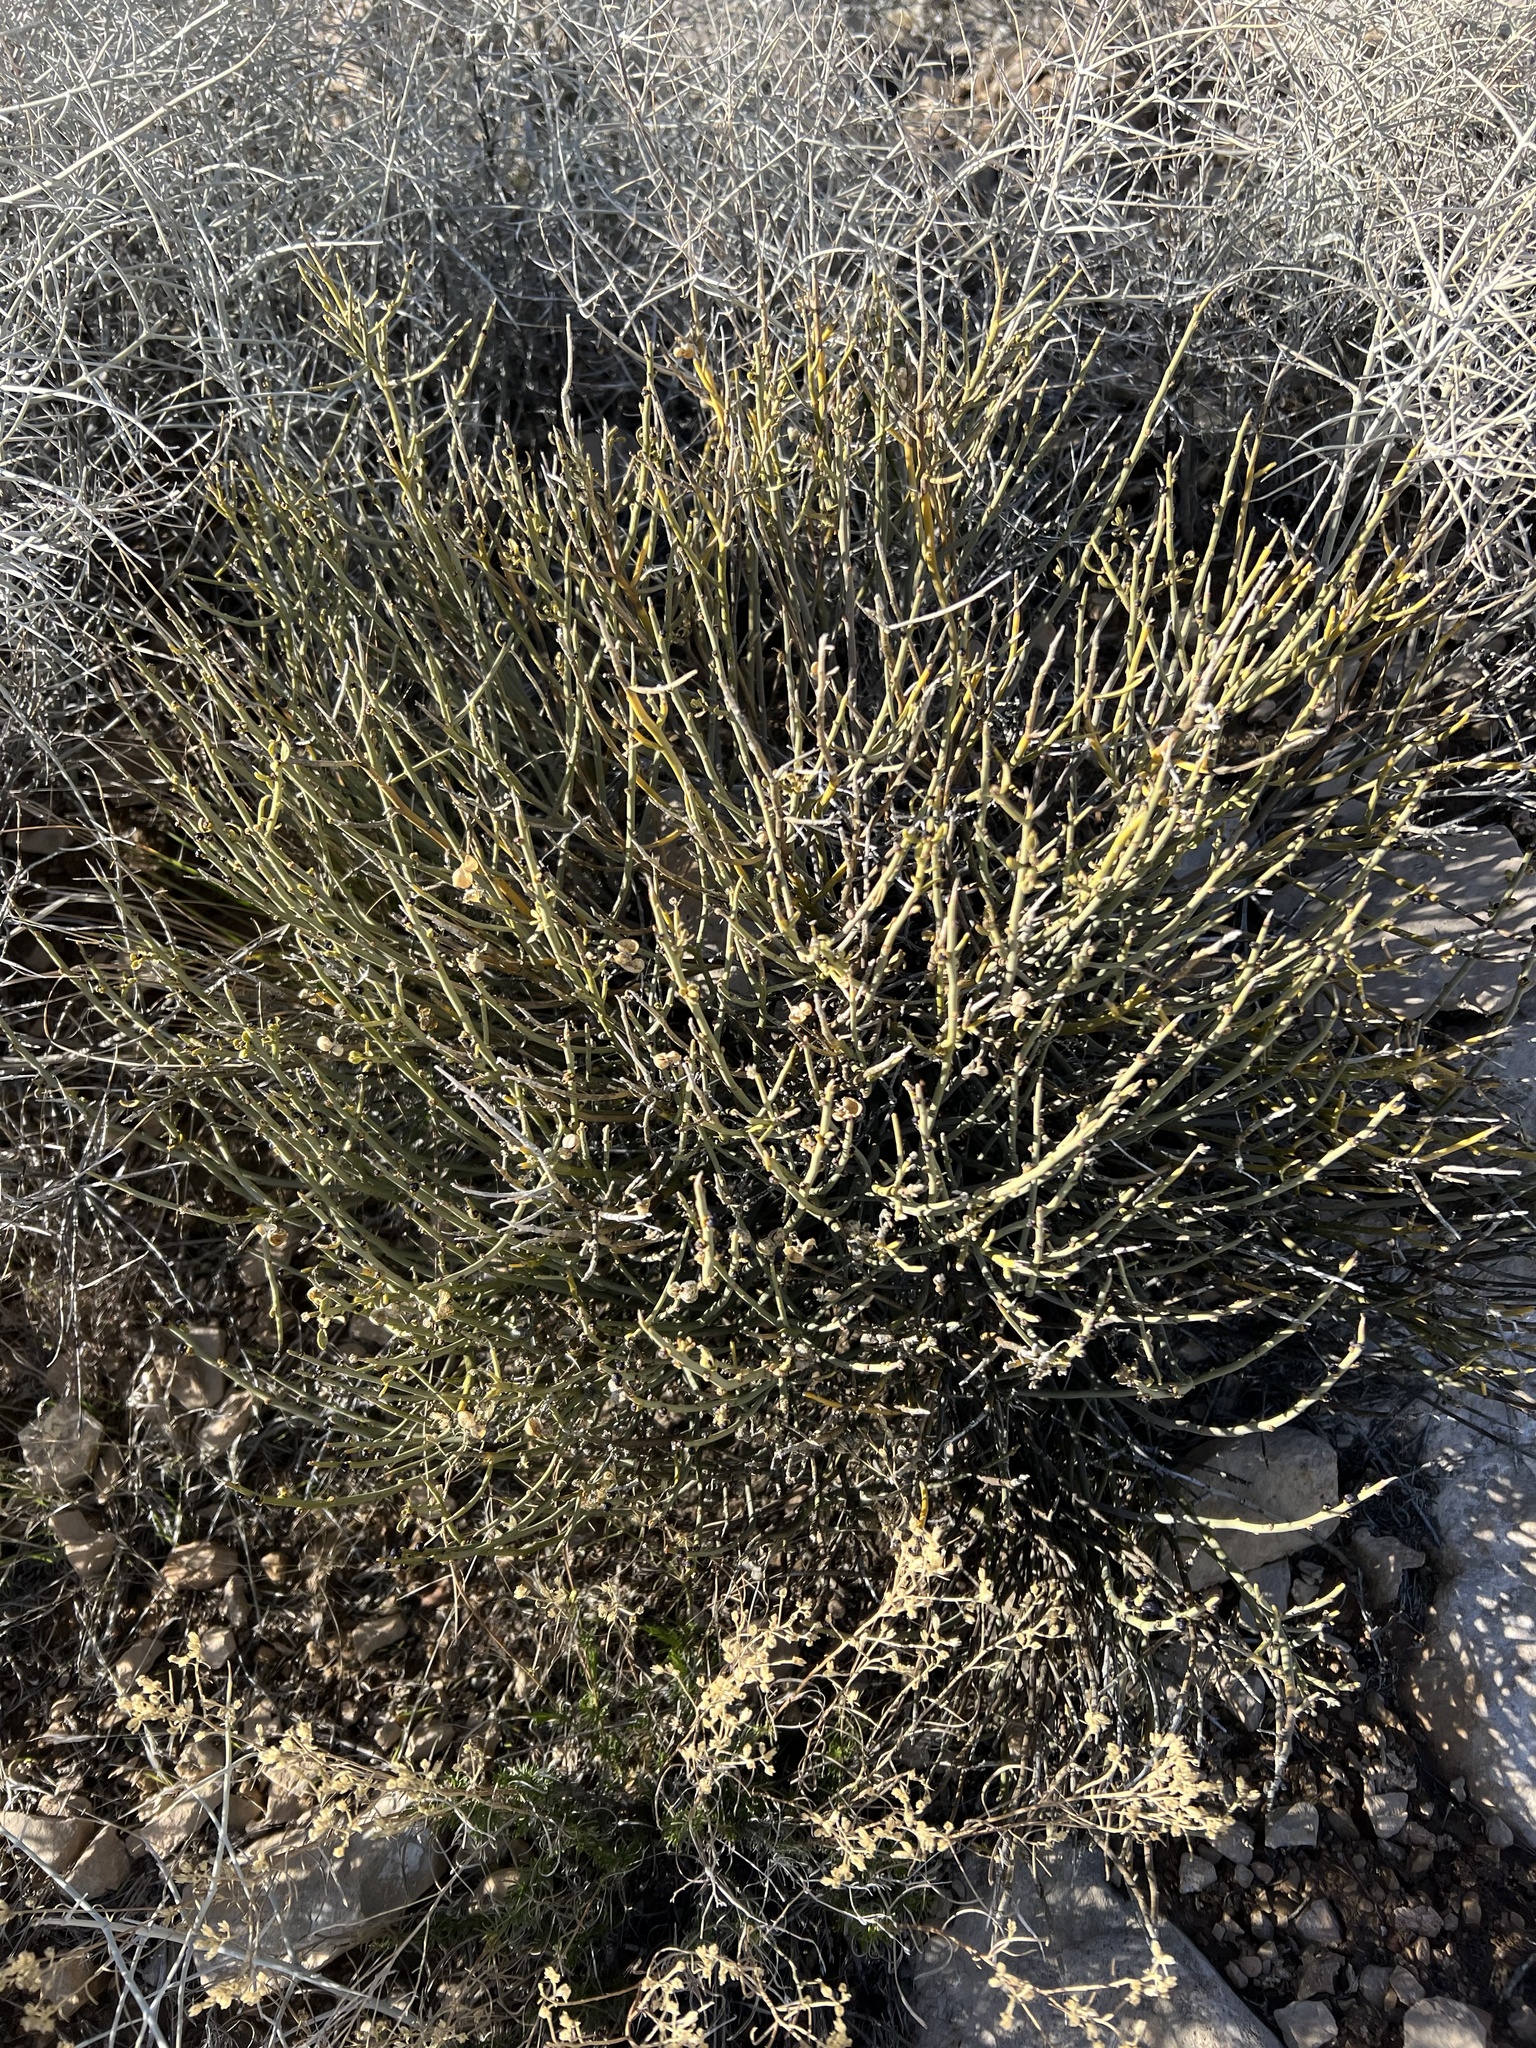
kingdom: Plantae
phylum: Tracheophyta
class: Magnoliopsida
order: Sapindales
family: Rutaceae
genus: Thamnosma
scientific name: Thamnosma montana
